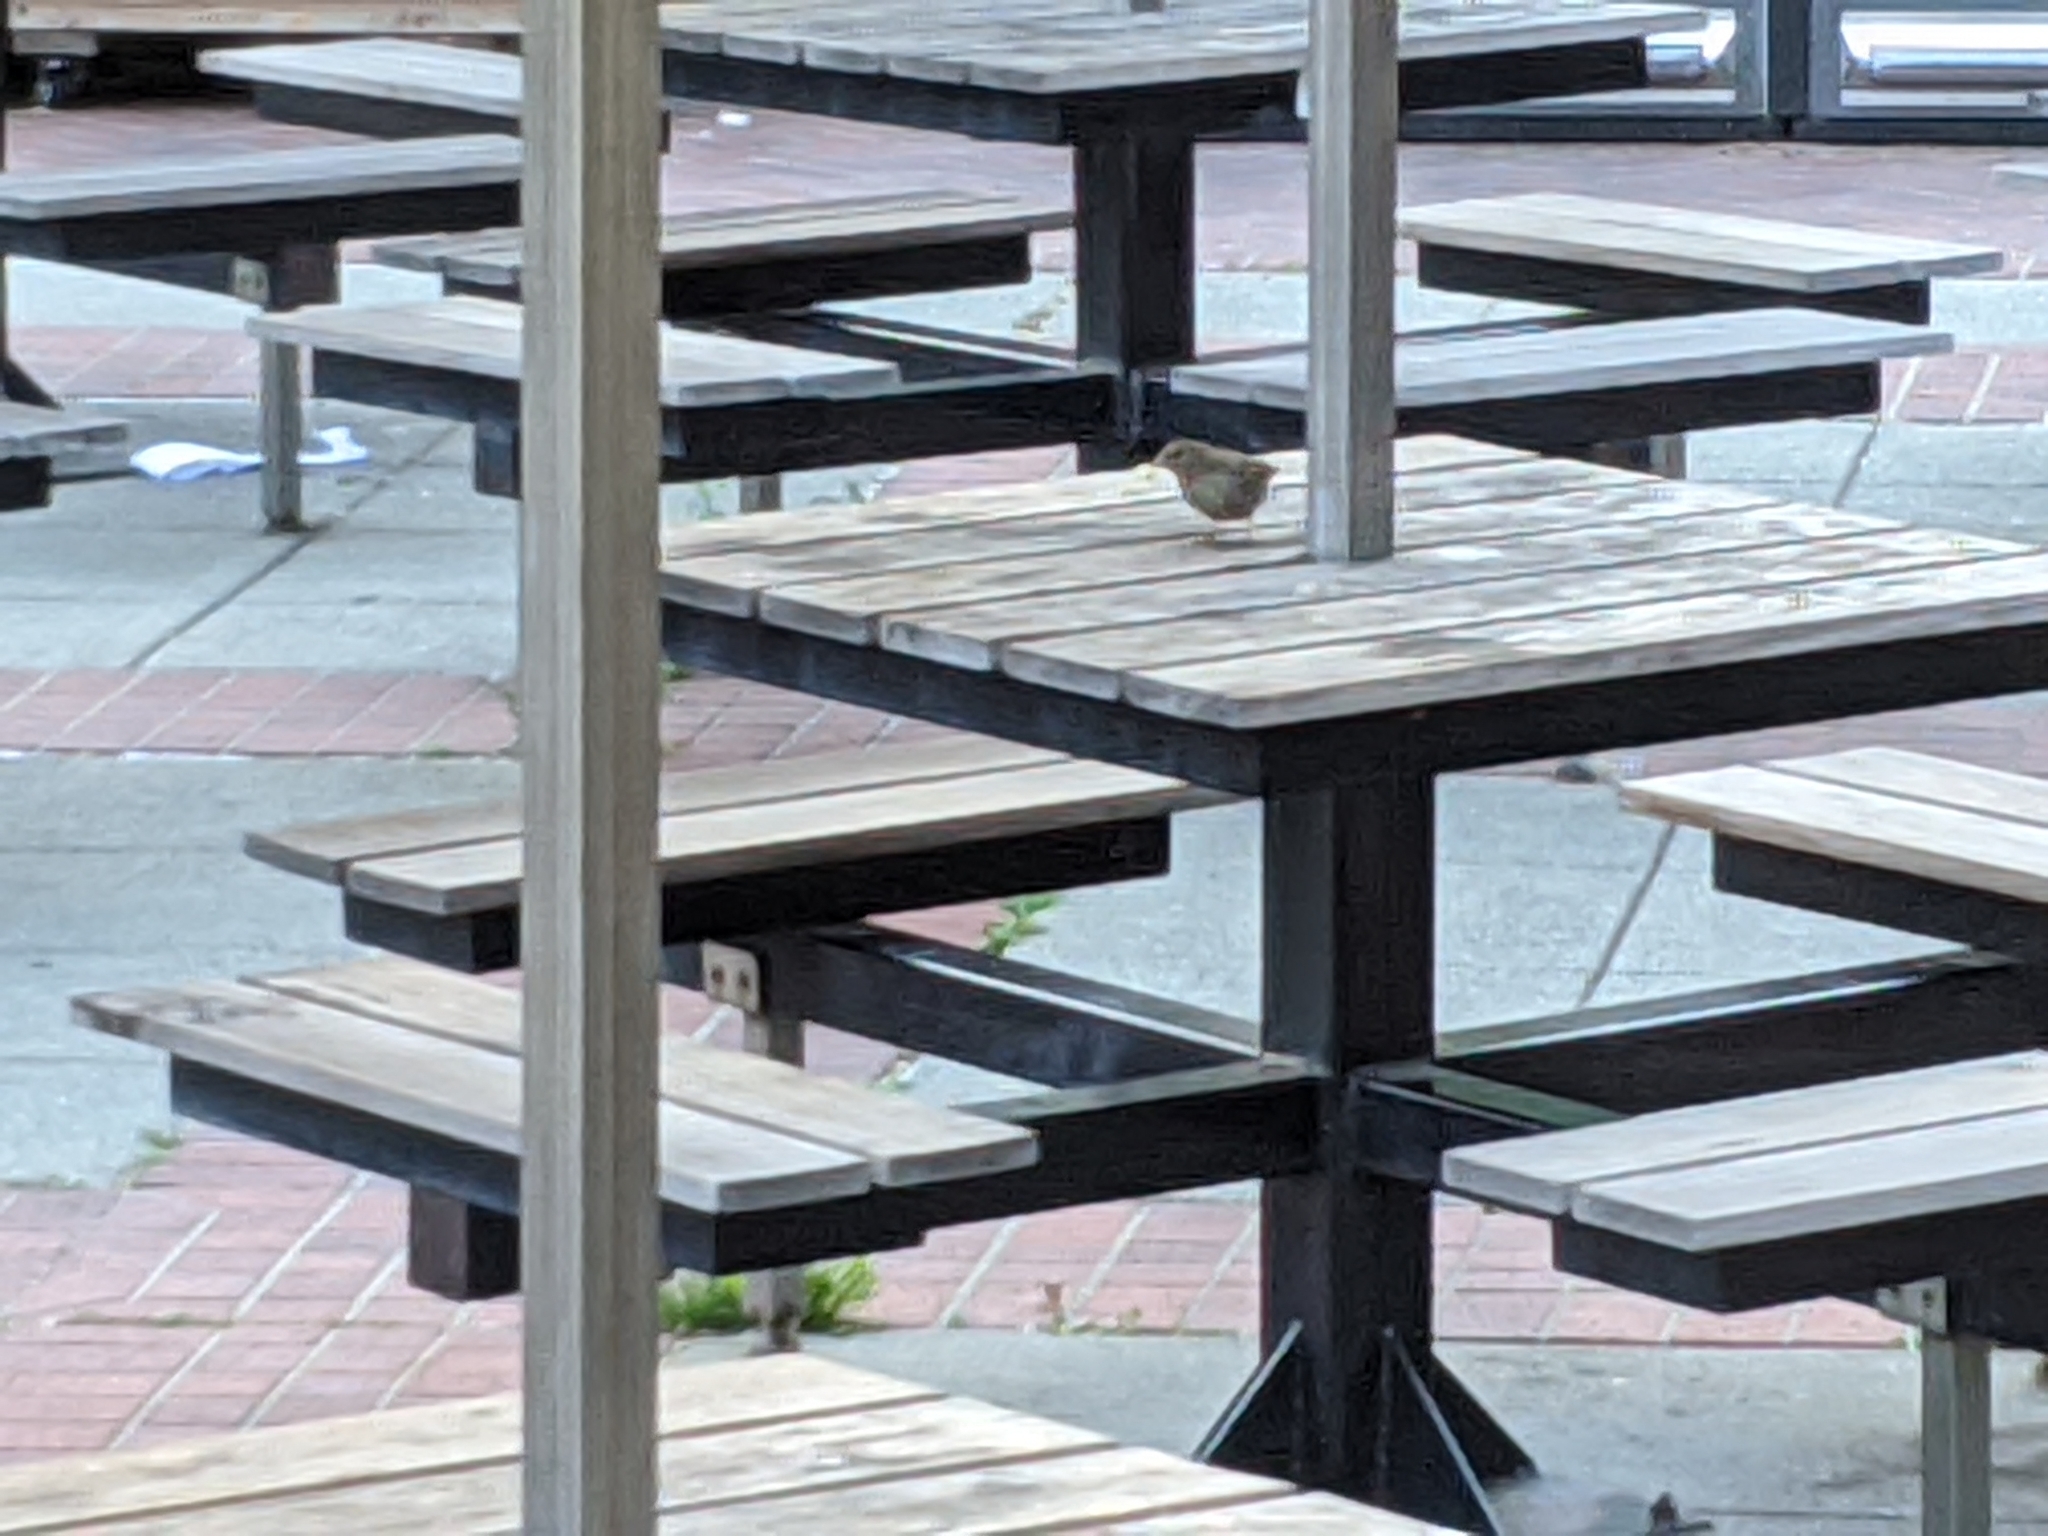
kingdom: Animalia
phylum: Chordata
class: Aves
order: Passeriformes
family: Passerellidae
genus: Melozone
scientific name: Melozone crissalis
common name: California towhee
